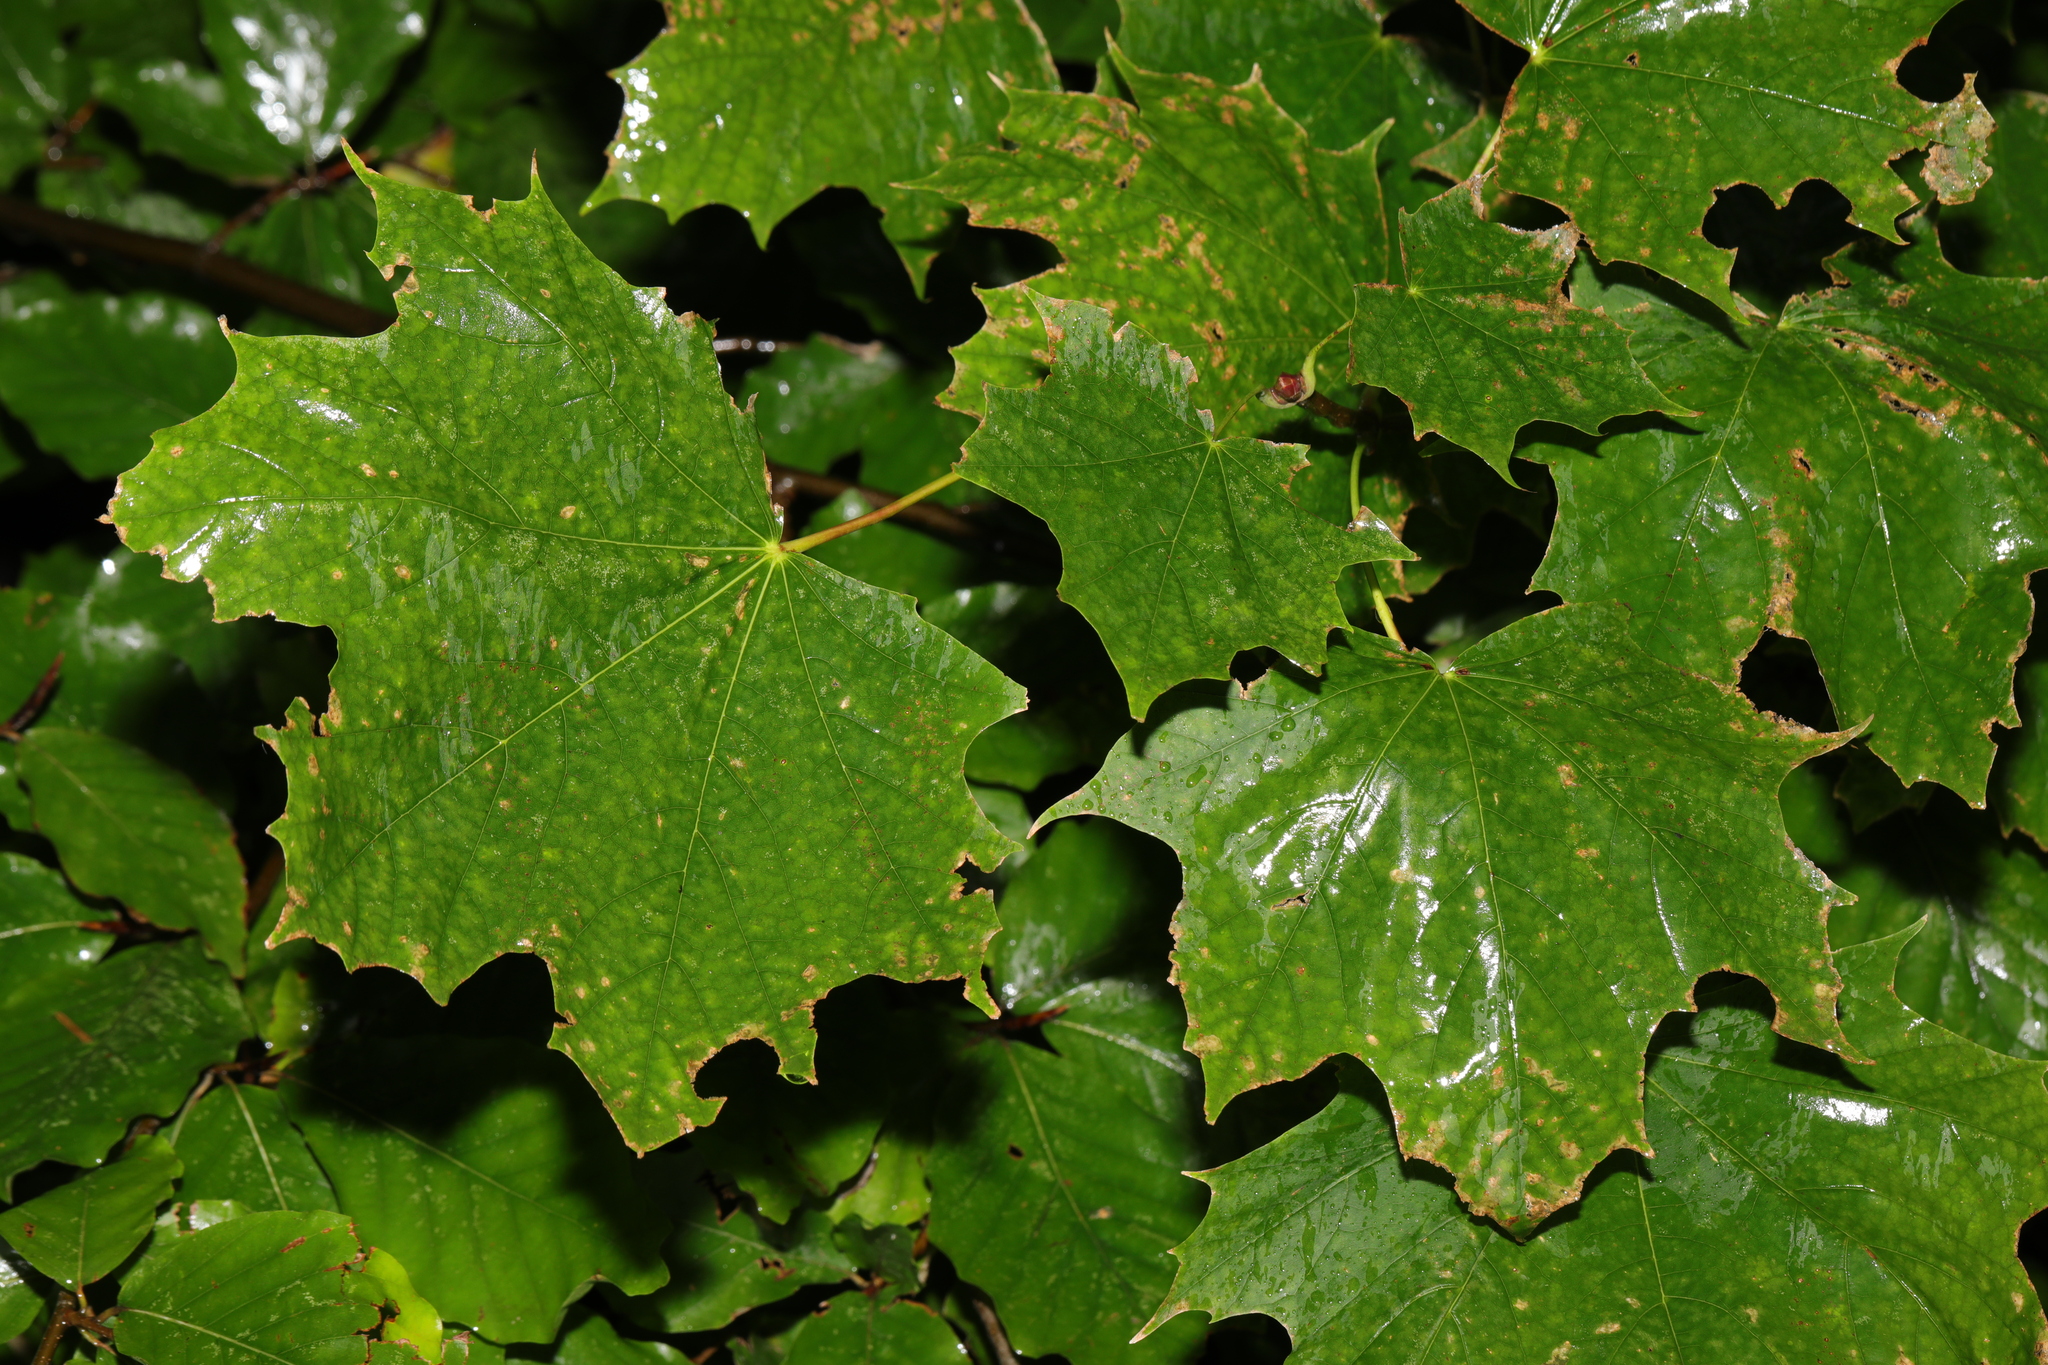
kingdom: Plantae
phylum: Tracheophyta
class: Magnoliopsida
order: Sapindales
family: Sapindaceae
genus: Acer
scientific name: Acer platanoides
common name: Norway maple
